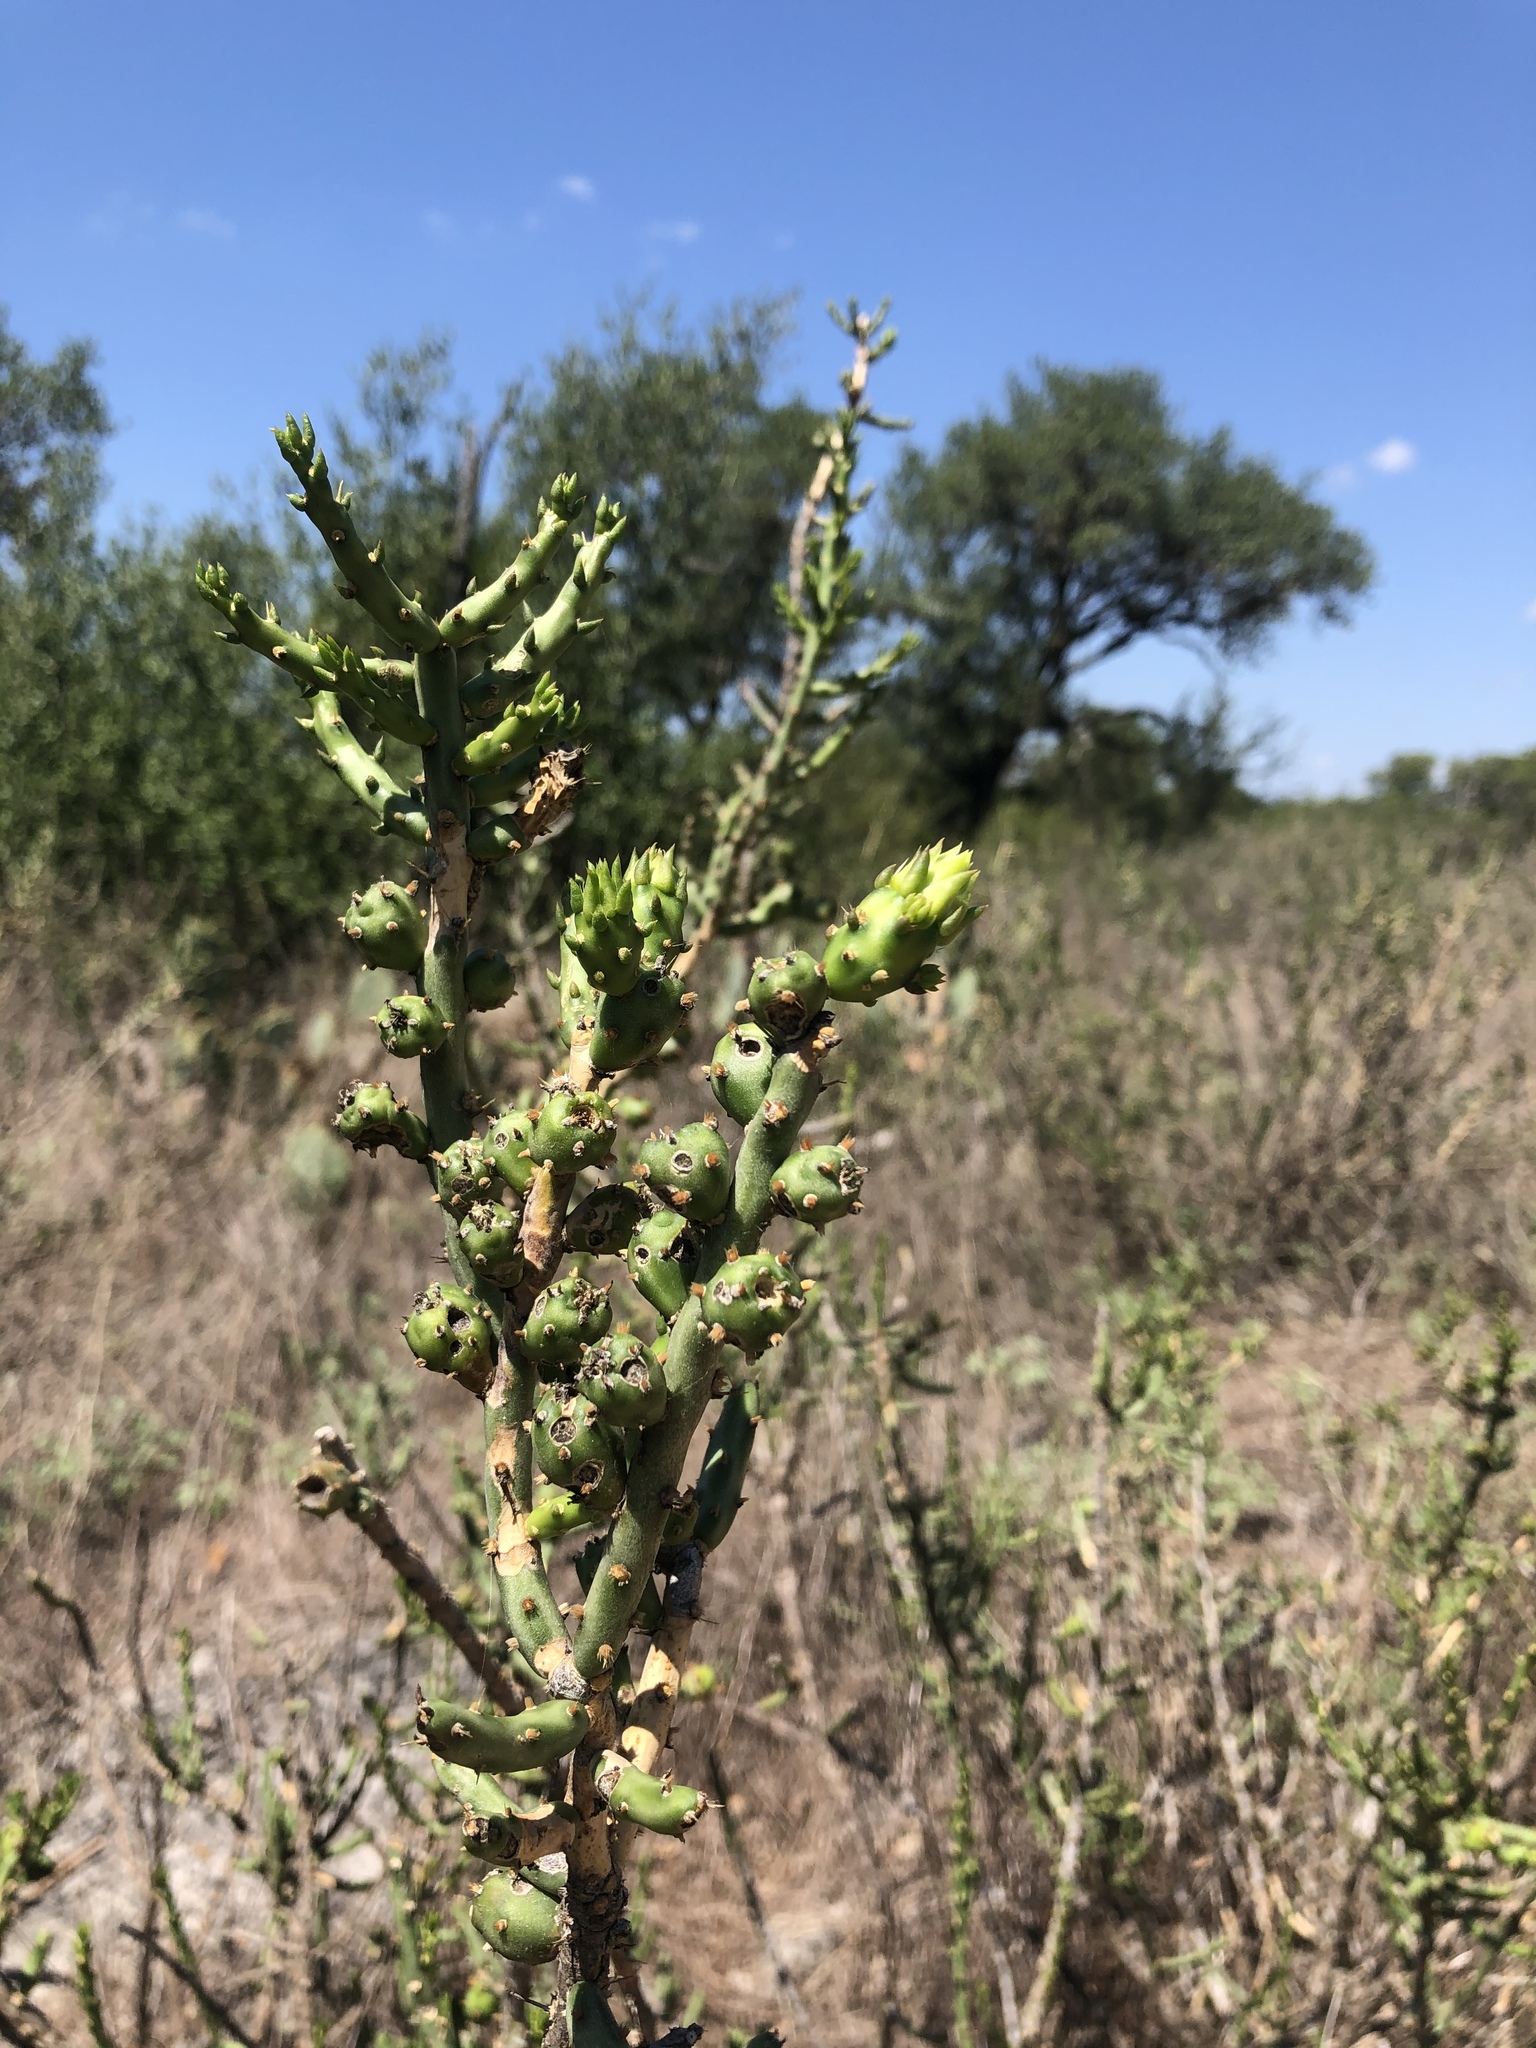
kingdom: Plantae
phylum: Tracheophyta
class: Magnoliopsida
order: Caryophyllales
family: Cactaceae
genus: Cylindropuntia
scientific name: Cylindropuntia leptocaulis
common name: Christmas cactus
